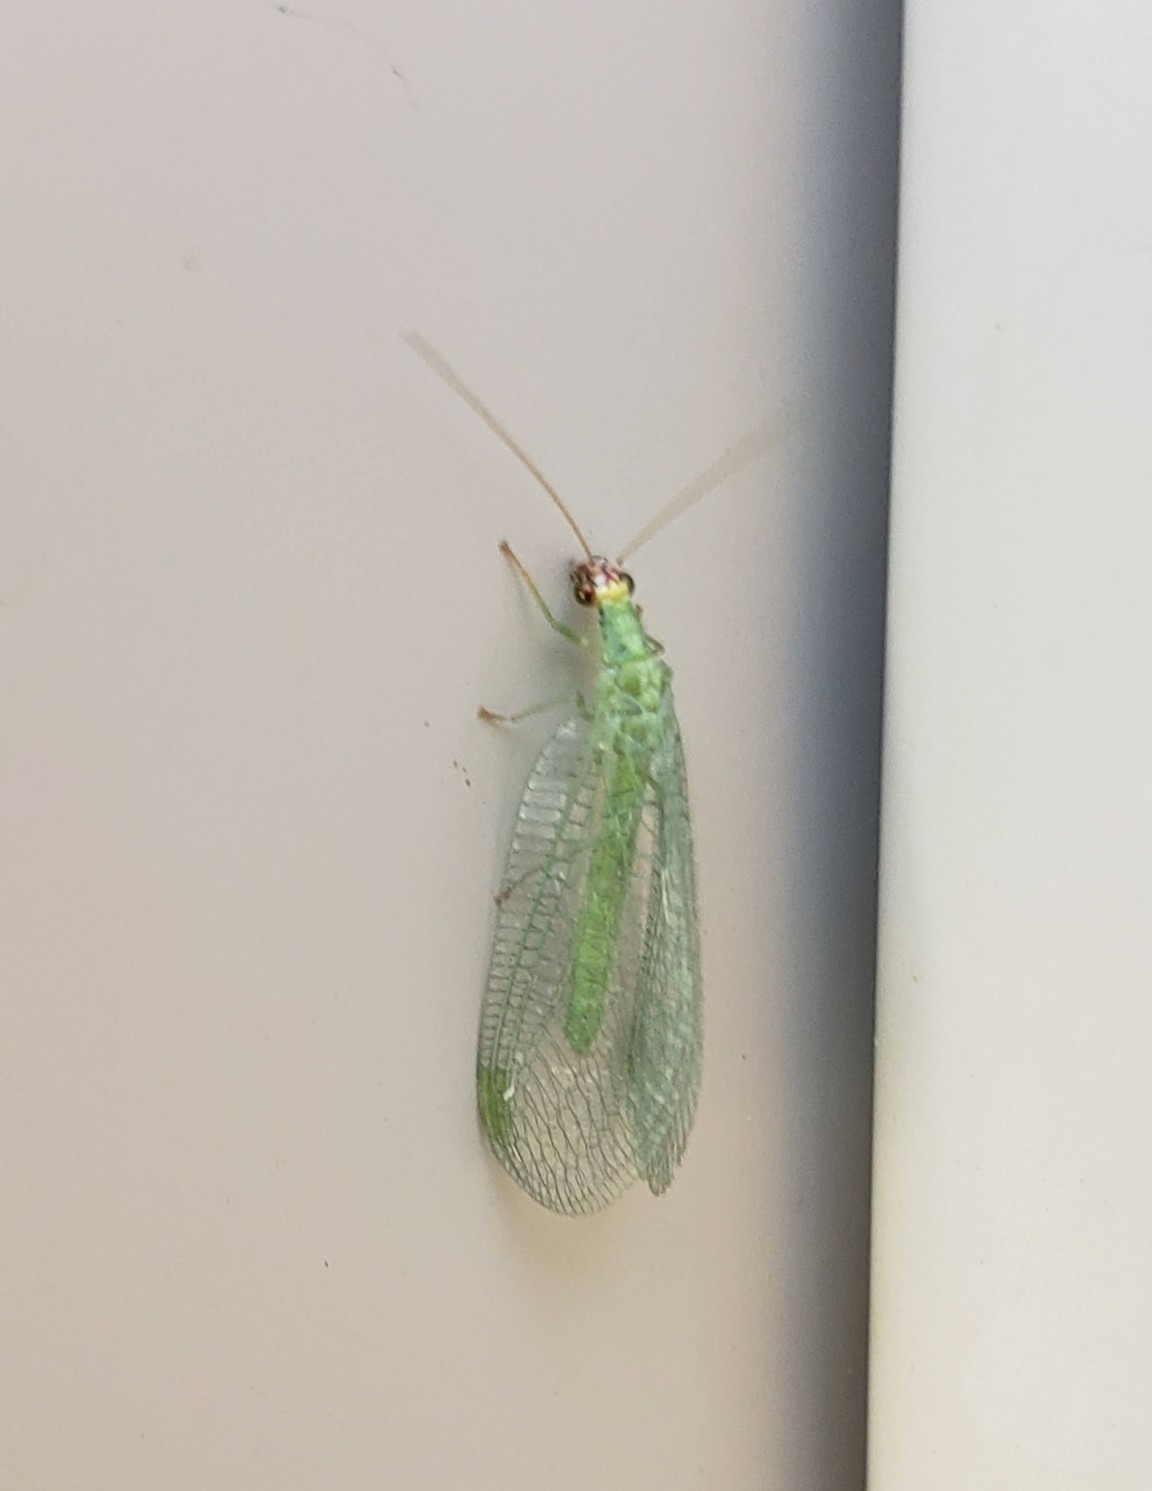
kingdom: Animalia
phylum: Arthropoda
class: Insecta
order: Neuroptera
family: Chrysopidae
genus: Chrysopa
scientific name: Chrysopa oculata
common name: Golden-eyed lacewing
